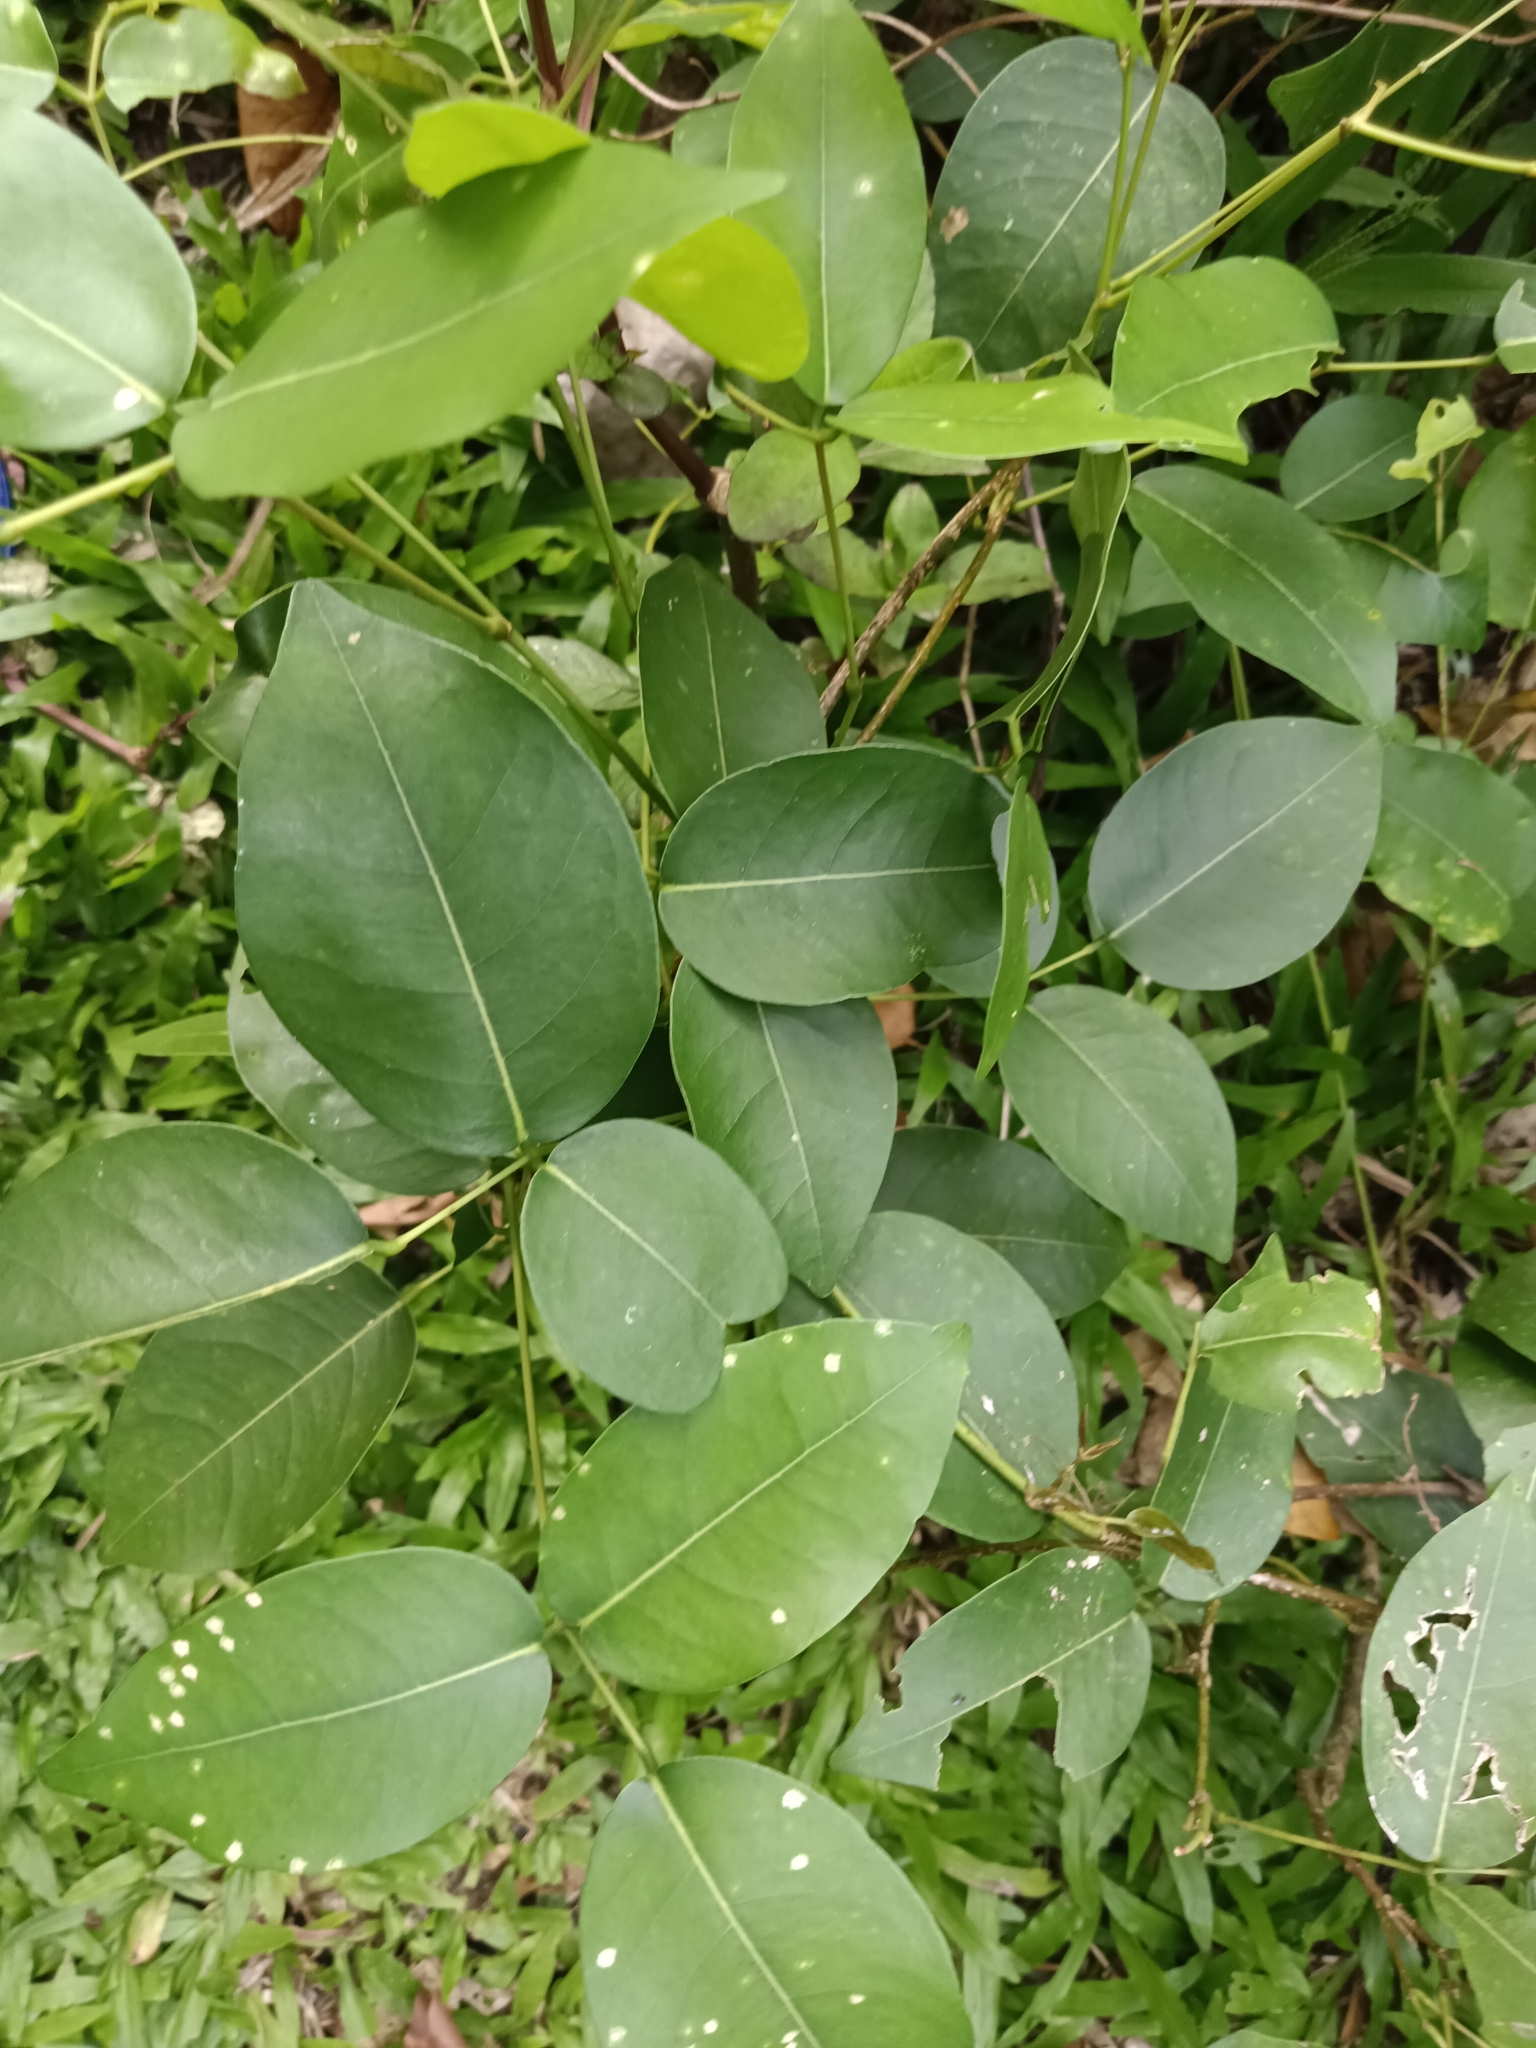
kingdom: Plantae
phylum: Tracheophyta
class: Magnoliopsida
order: Fabales
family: Fabaceae
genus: Derris
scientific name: Derris trifoliata
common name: Three-leaf derris
